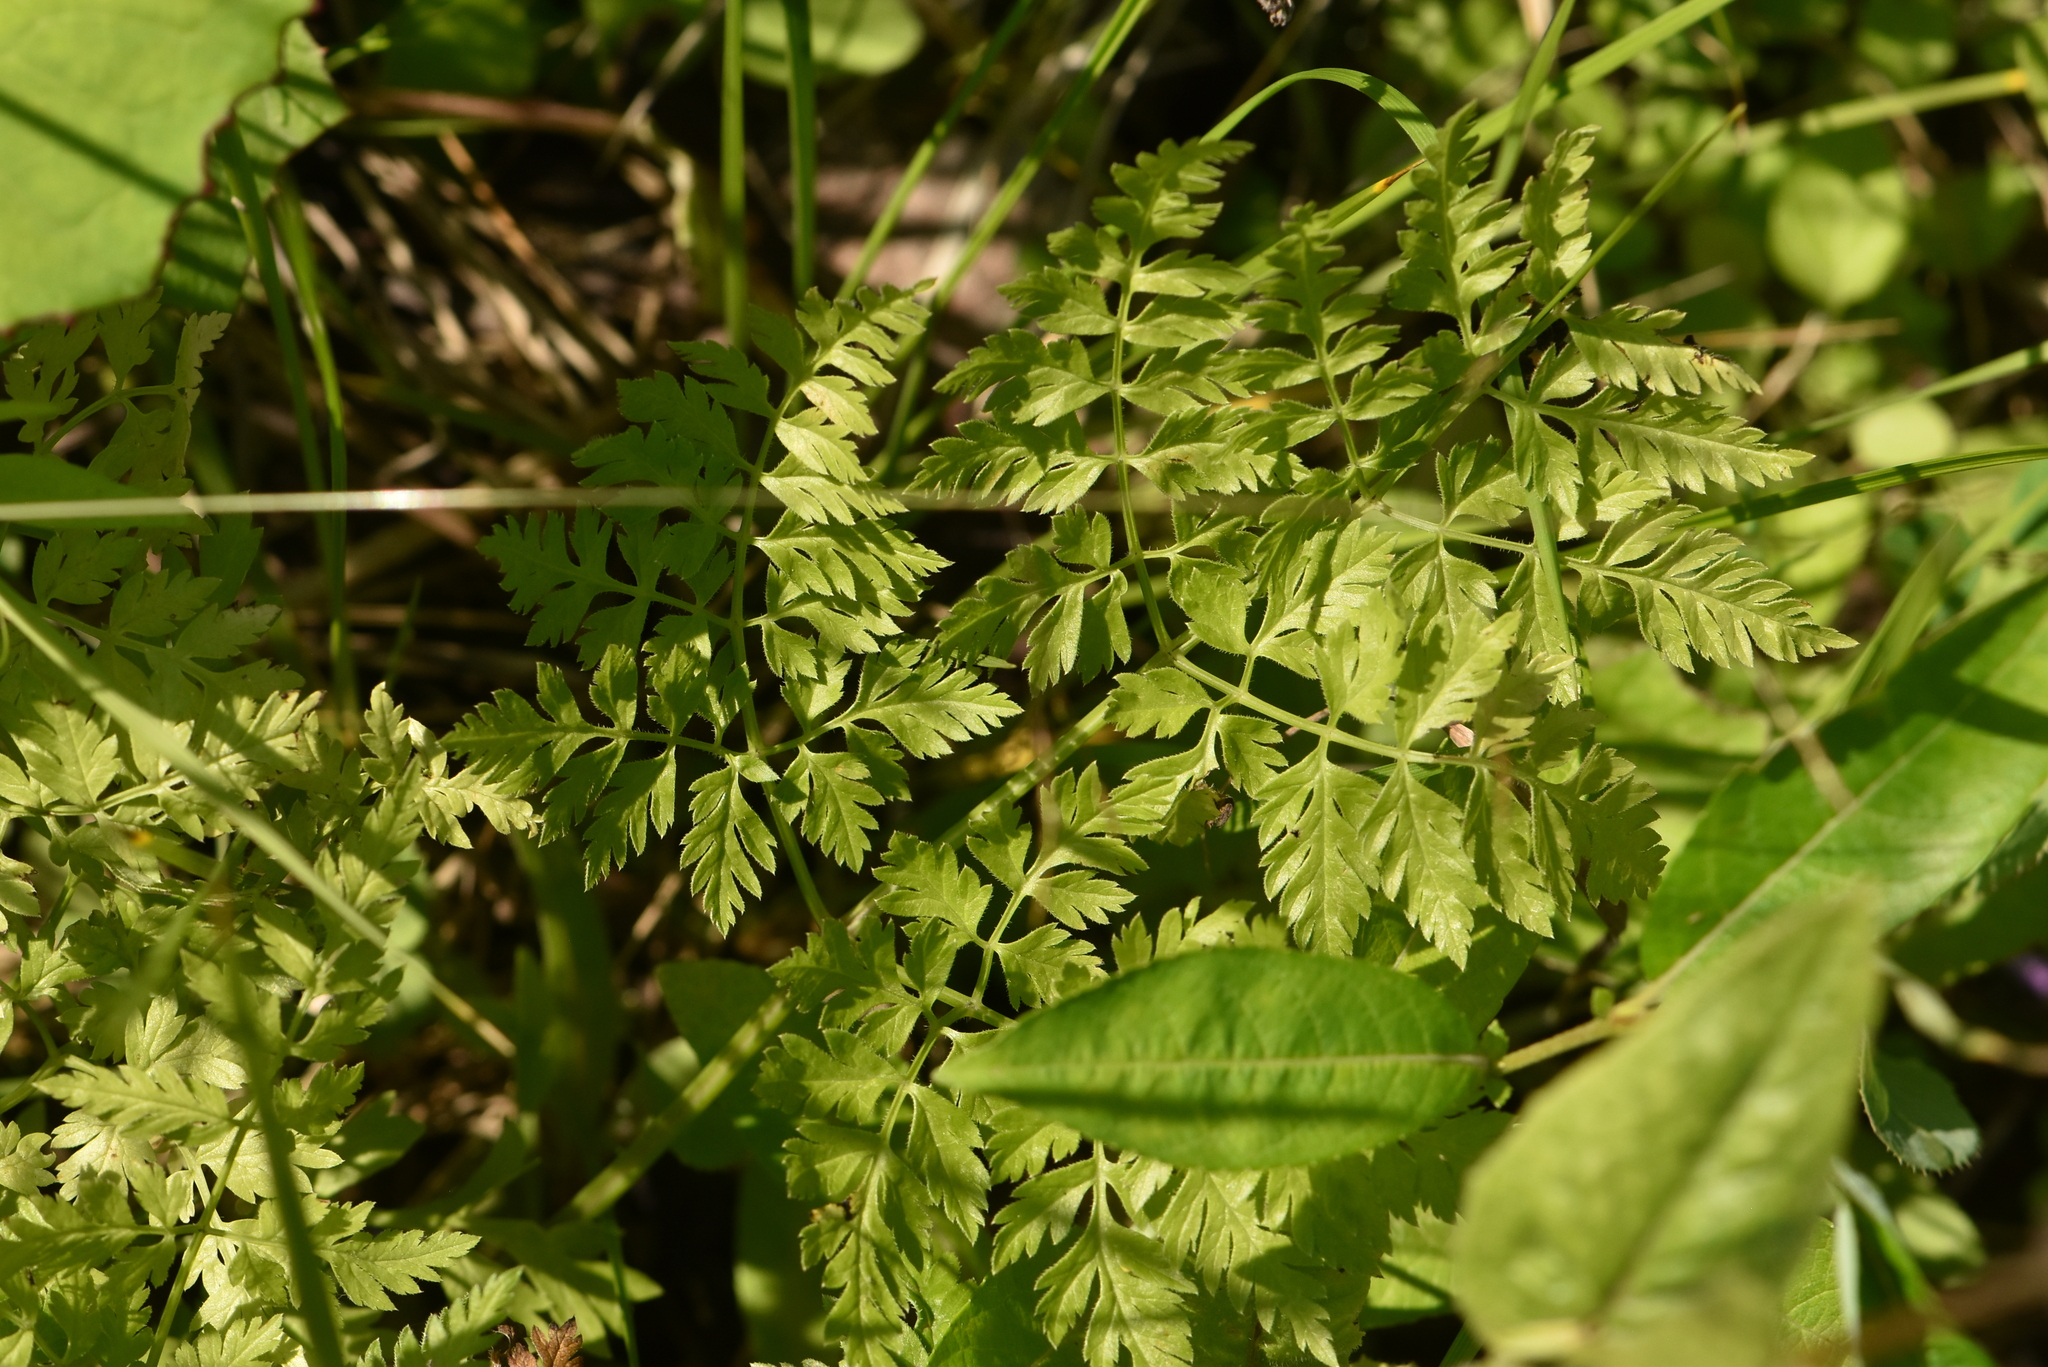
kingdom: Plantae
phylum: Tracheophyta
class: Magnoliopsida
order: Apiales
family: Apiaceae
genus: Anthriscus
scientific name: Anthriscus sylvestris
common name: Cow parsley
